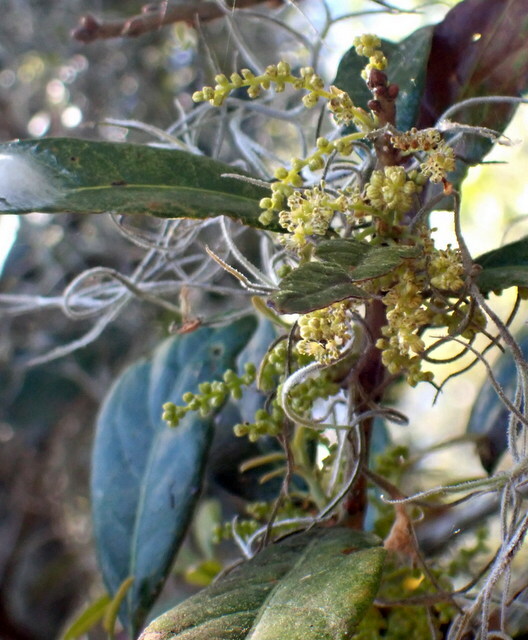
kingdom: Plantae
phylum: Tracheophyta
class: Magnoliopsida
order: Fagales
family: Fagaceae
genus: Quercus
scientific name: Quercus virginiana
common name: Southern live oak
